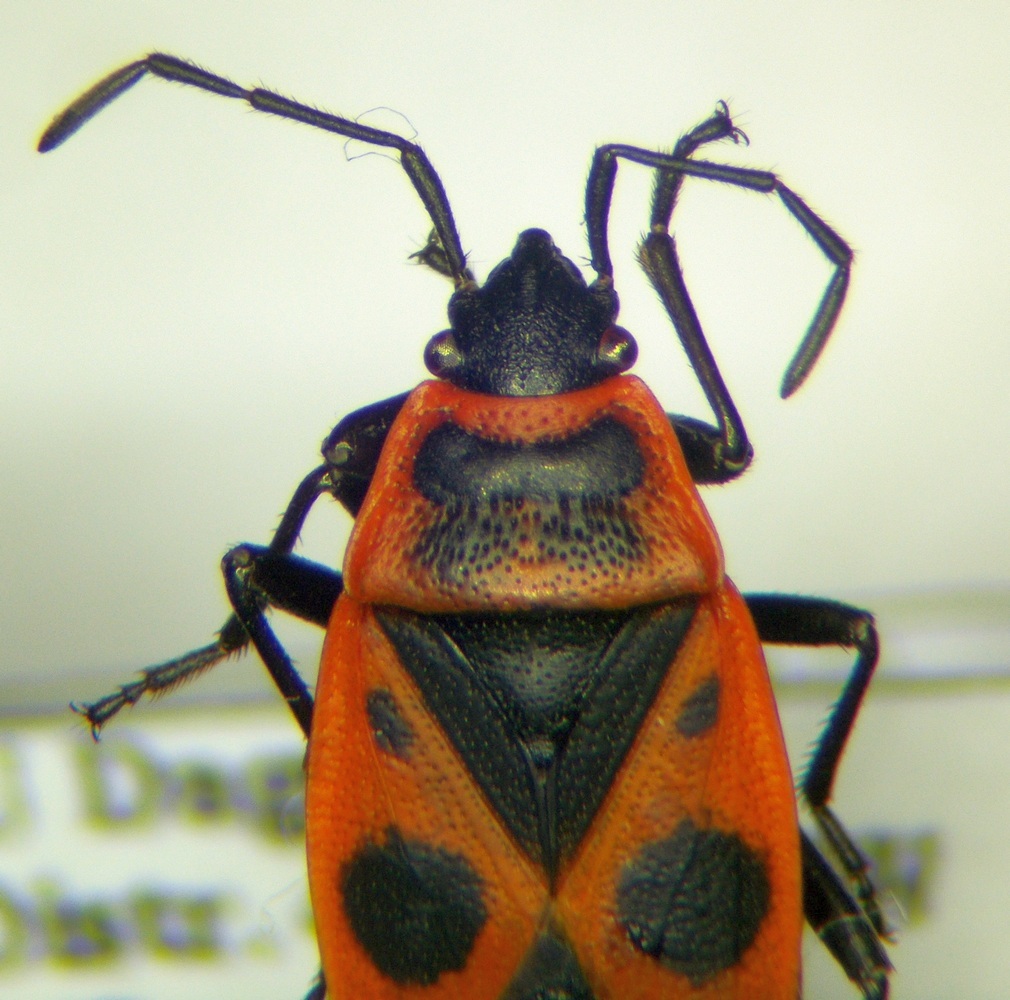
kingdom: Animalia
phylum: Arthropoda
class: Insecta
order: Hemiptera
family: Pyrrhocoridae
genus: Pyrrhocoris
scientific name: Pyrrhocoris apterus
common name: Firebug
